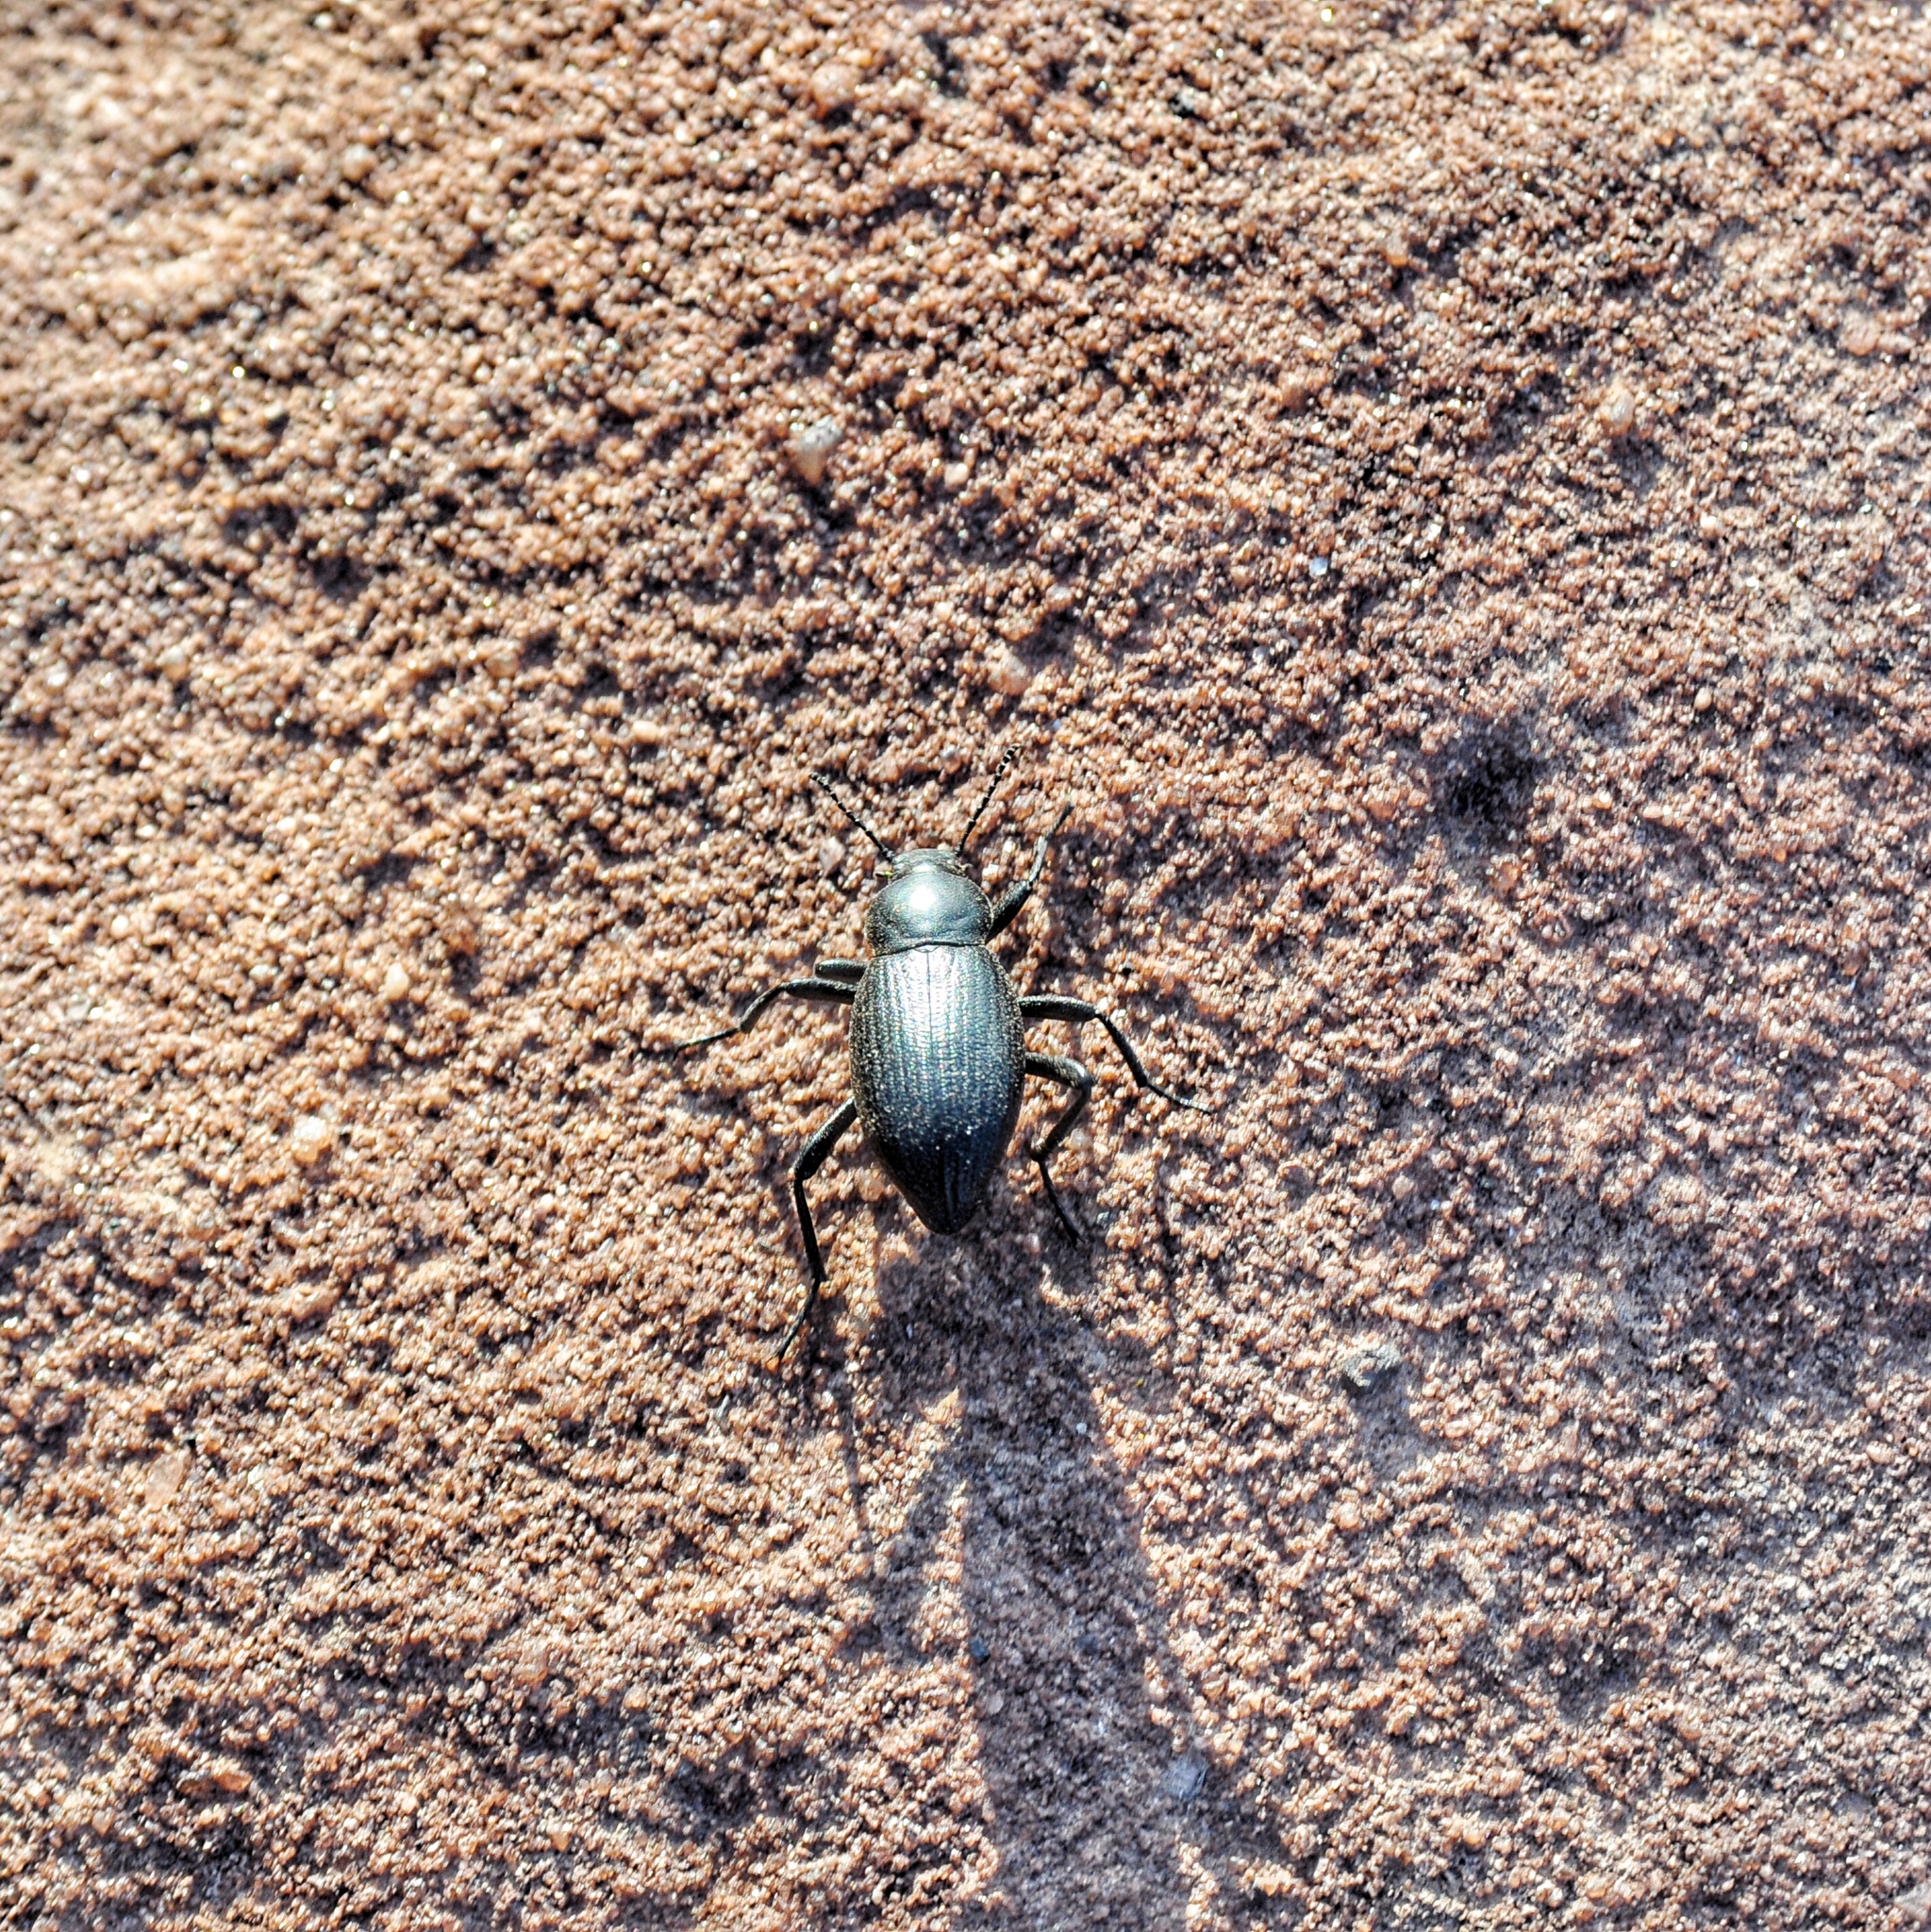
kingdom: Animalia
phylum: Arthropoda
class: Insecta
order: Coleoptera
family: Tenebrionidae
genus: Eleodes
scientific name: Eleodes carbonaria
